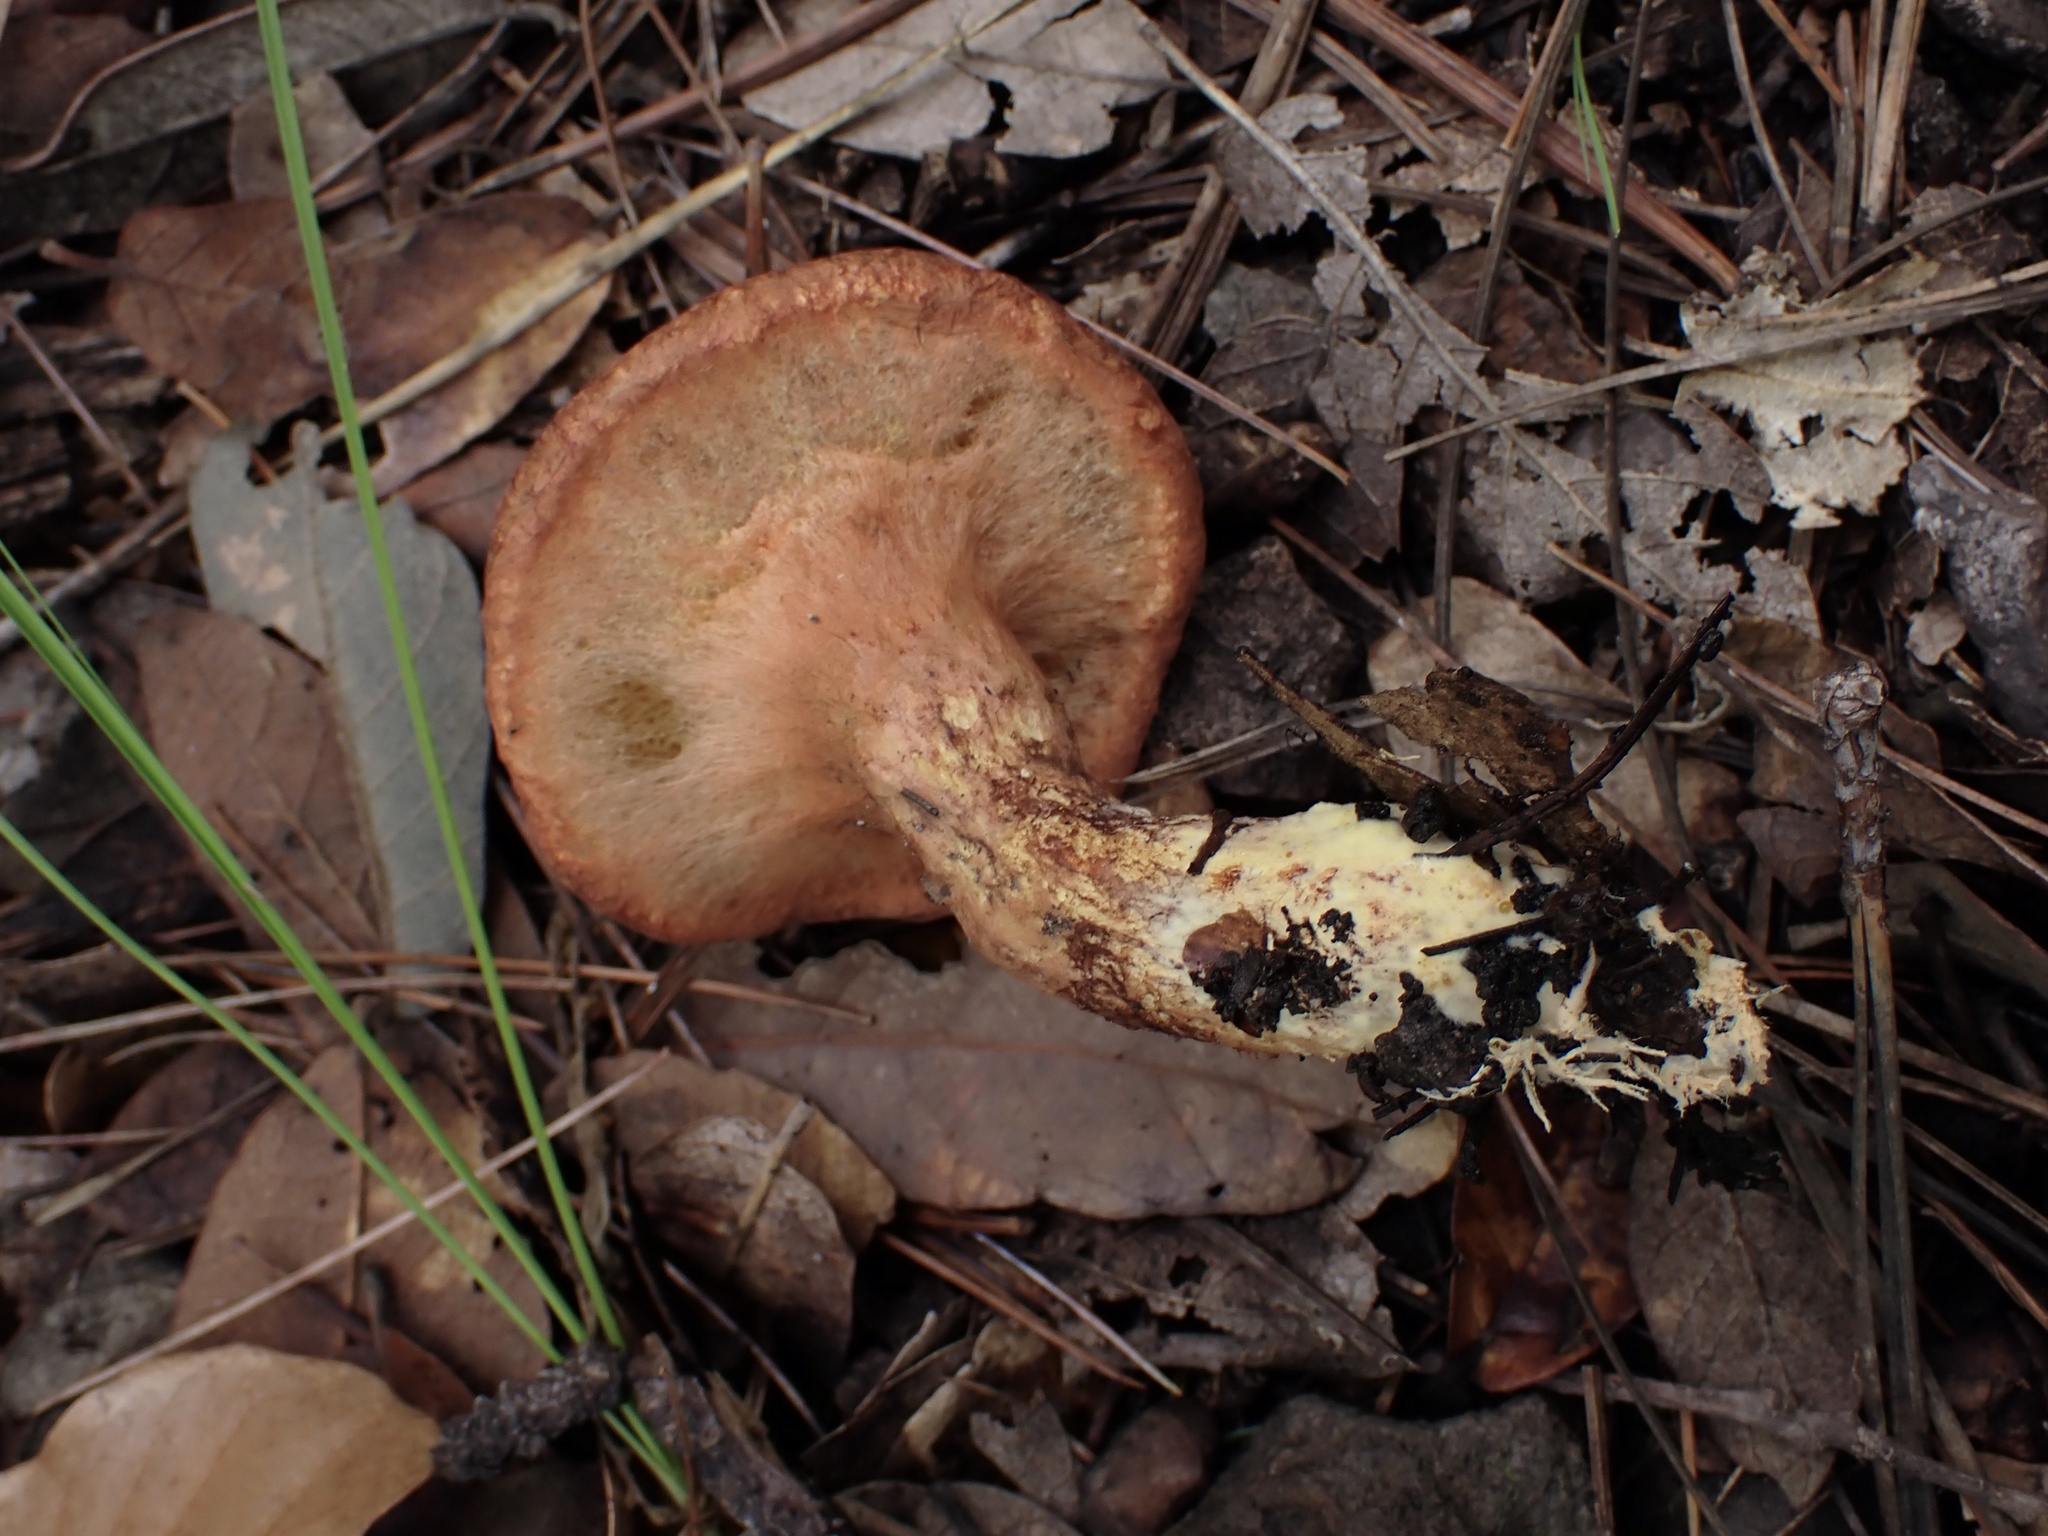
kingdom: Fungi
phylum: Basidiomycota
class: Agaricomycetes
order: Boletales
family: Suillaceae
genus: Suillus
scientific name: Suillus lakei
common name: Western painted suillus
